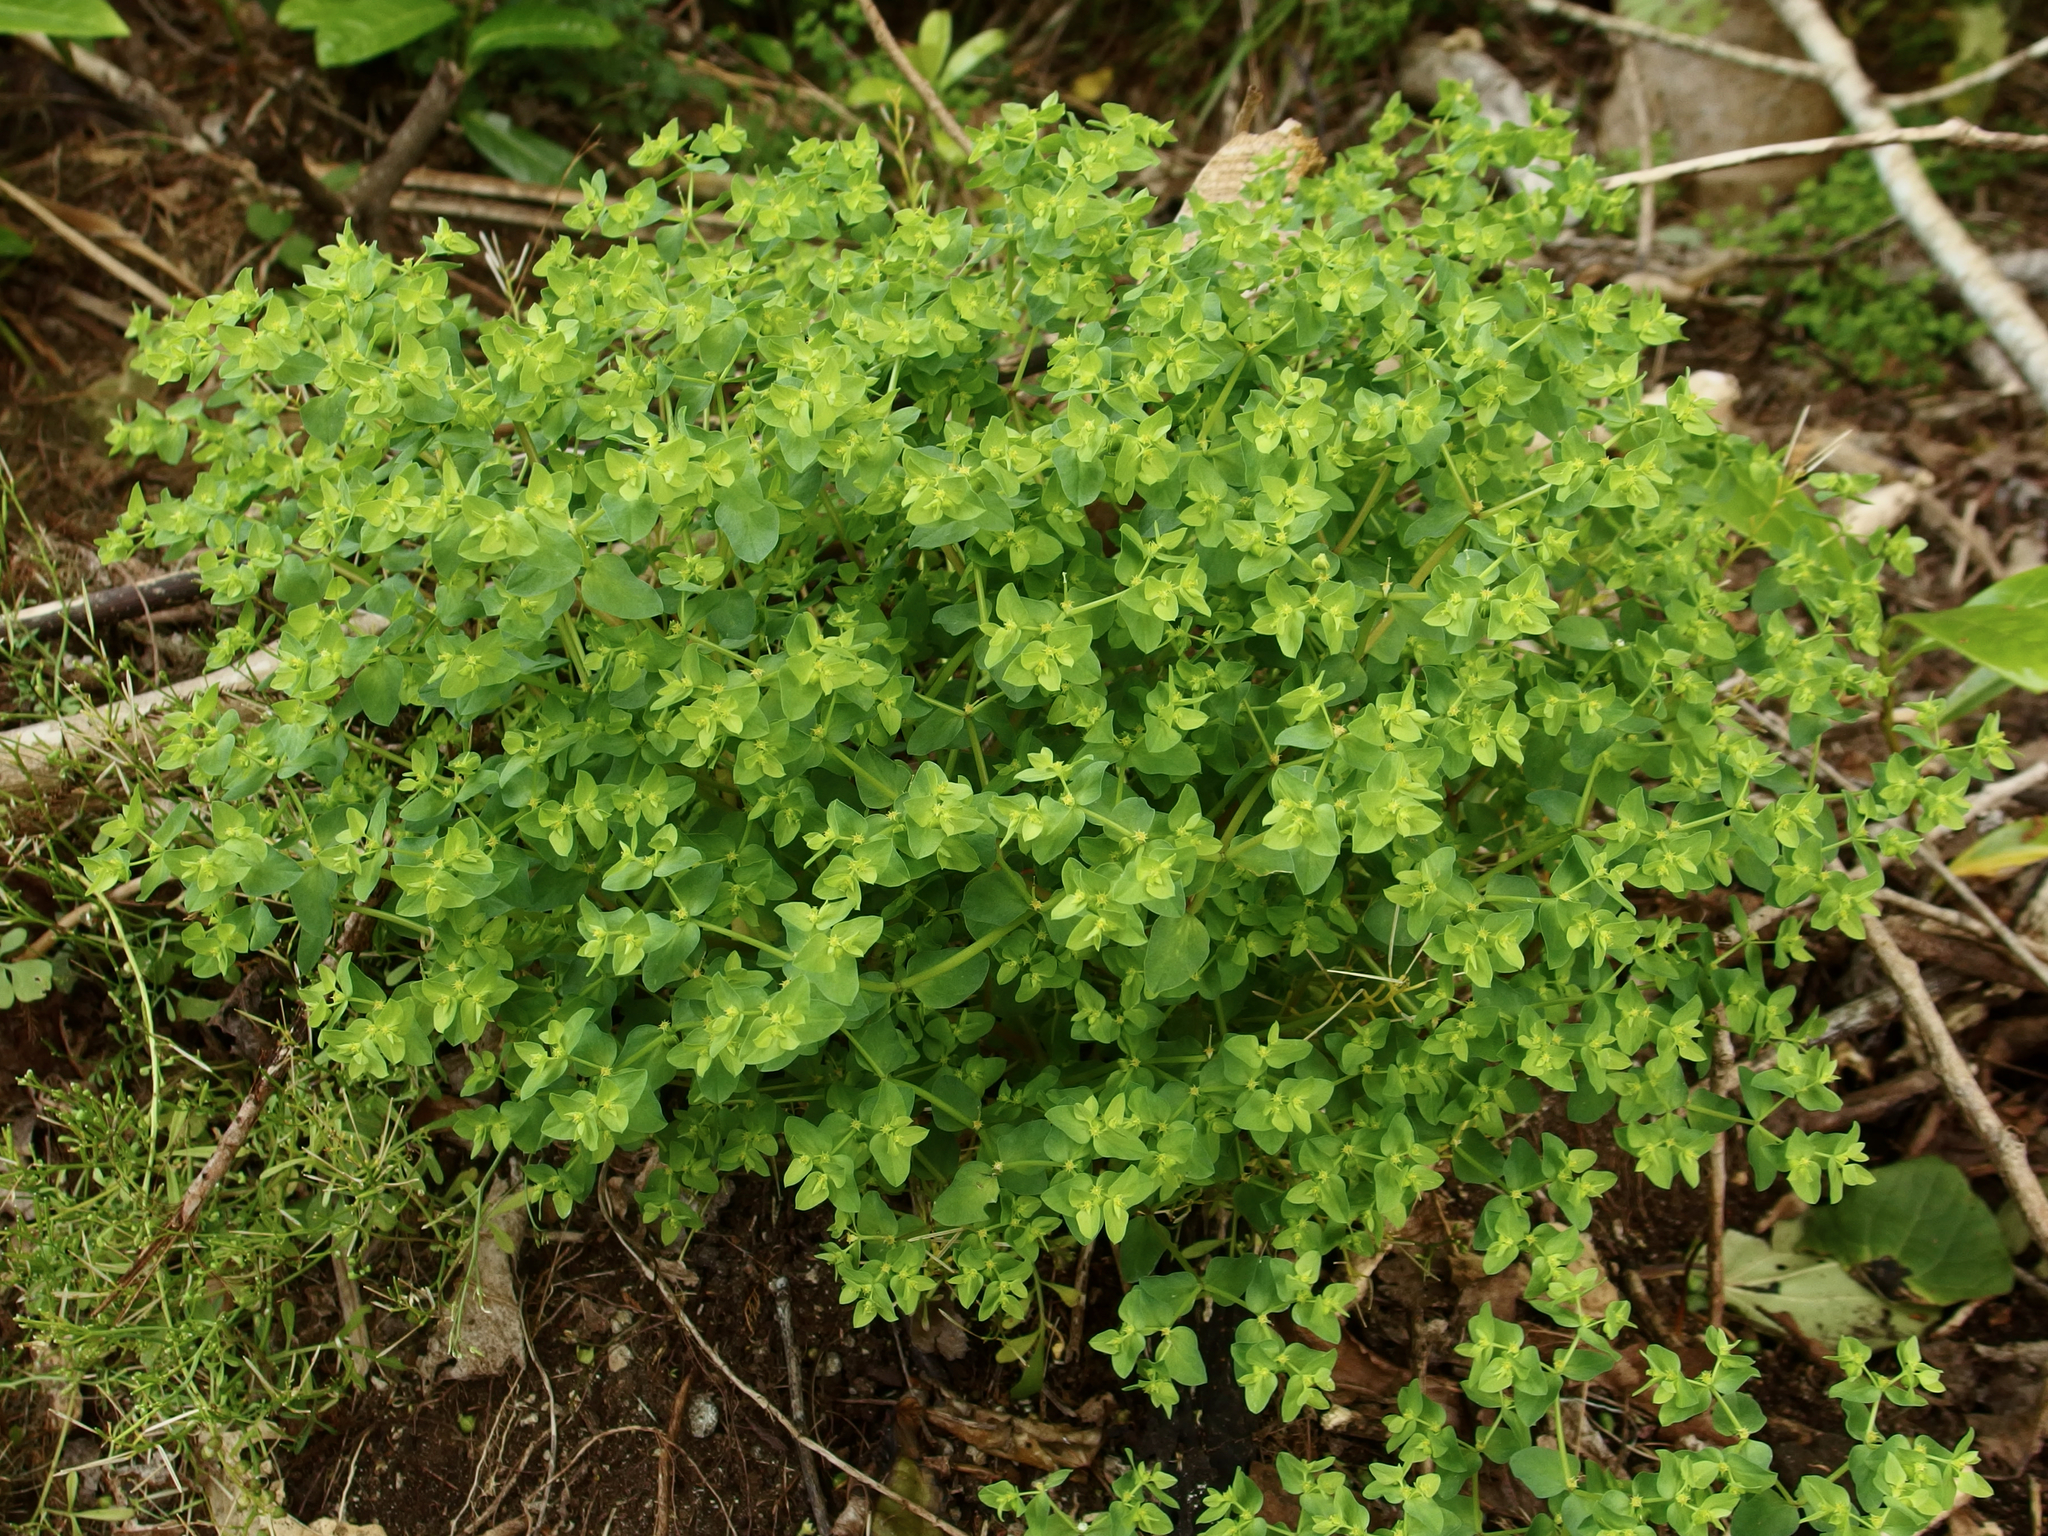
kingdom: Plantae
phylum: Tracheophyta
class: Magnoliopsida
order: Malpighiales
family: Euphorbiaceae
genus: Euphorbia
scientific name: Euphorbia peplus
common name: Petty spurge
